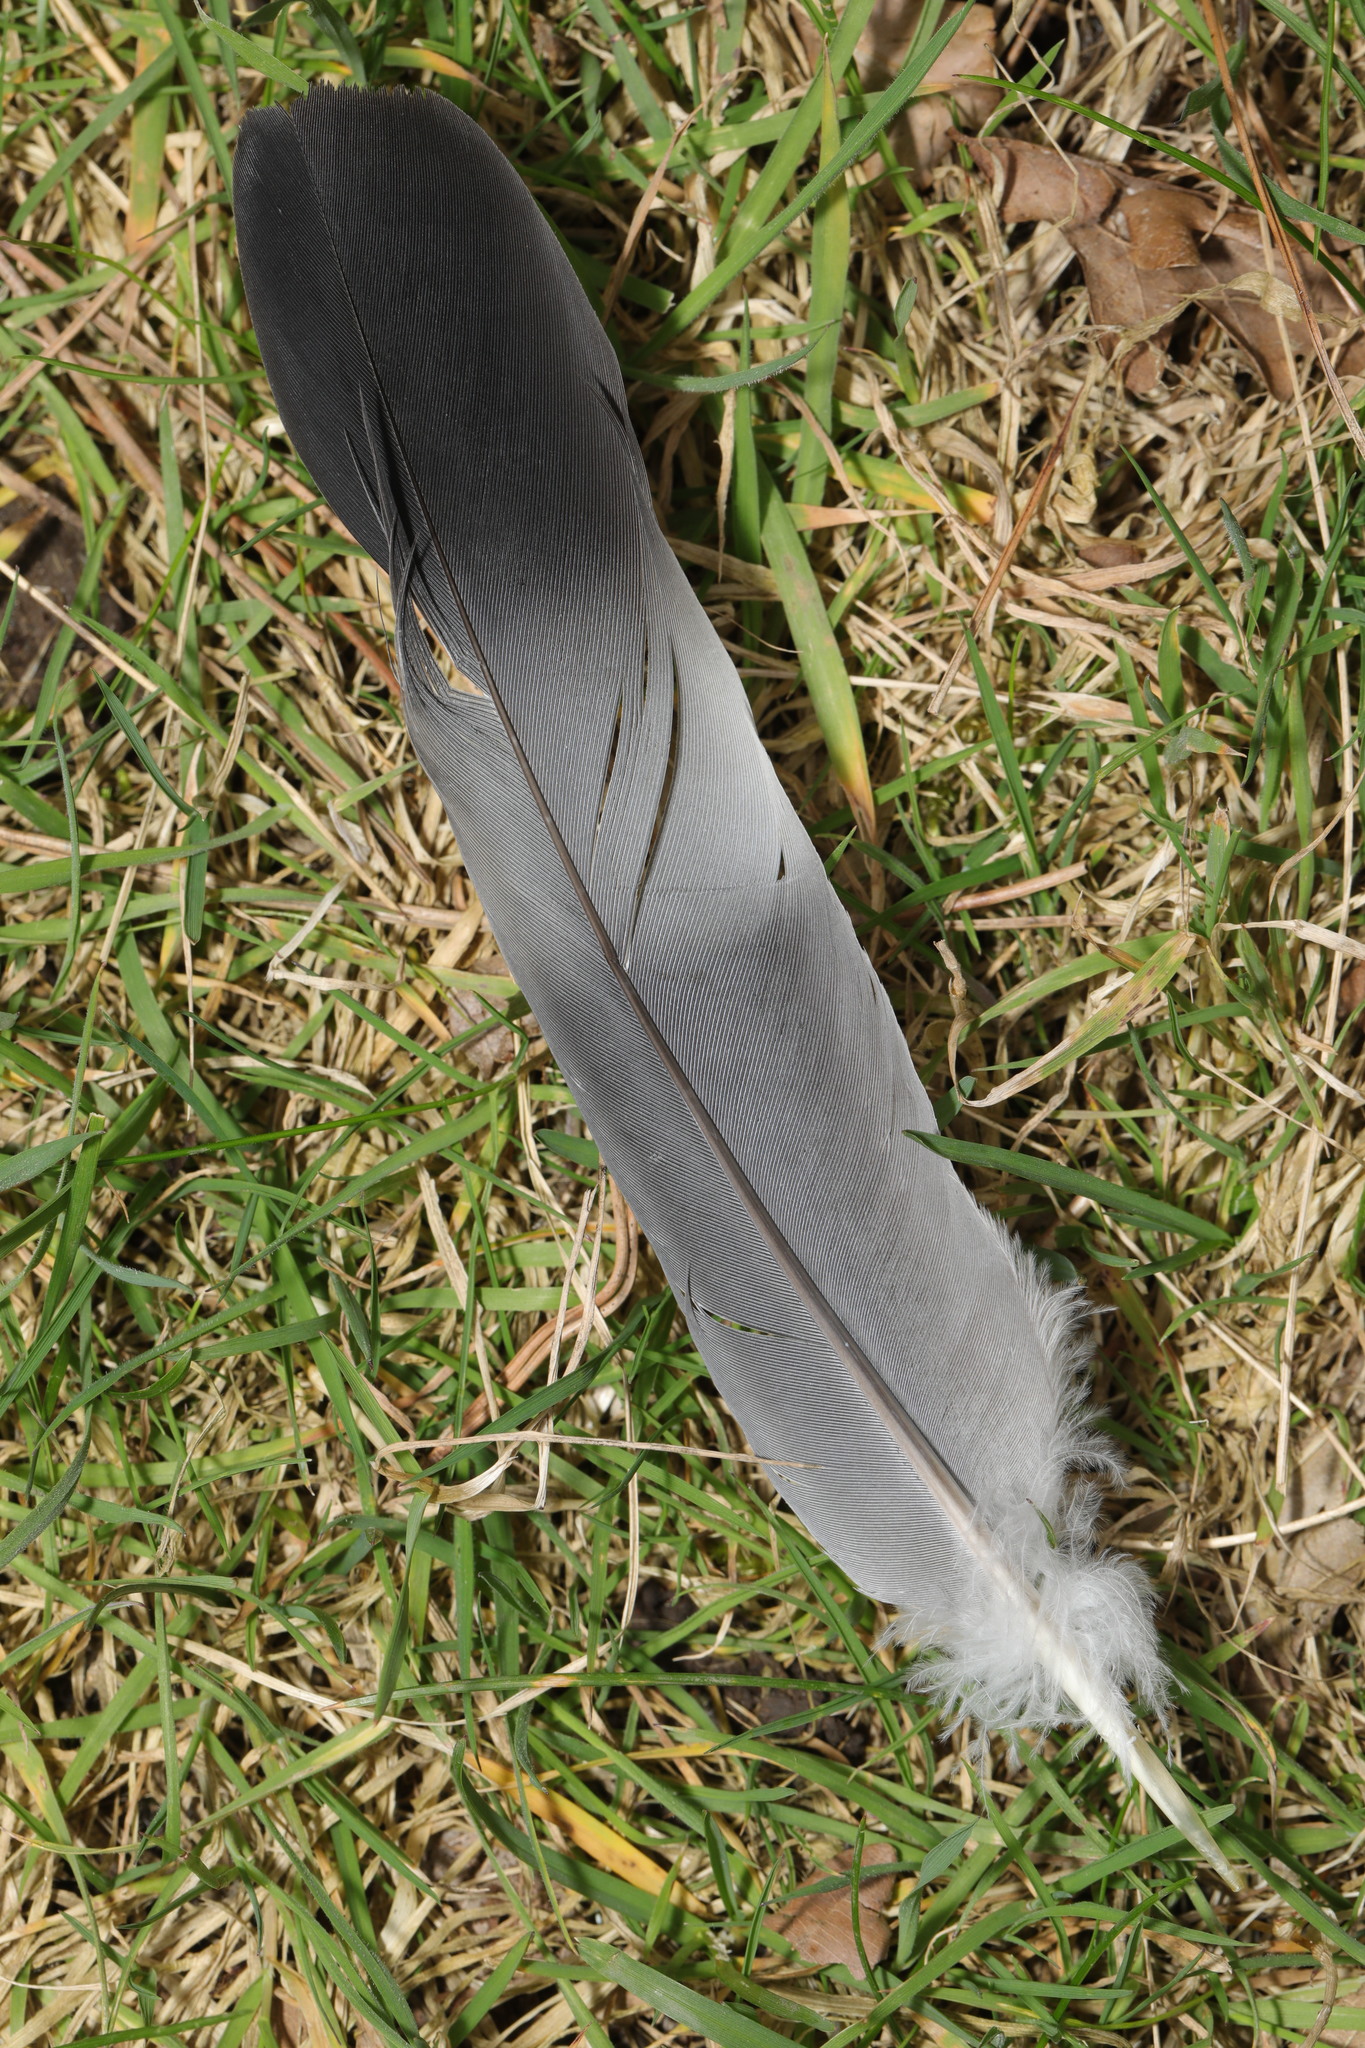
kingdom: Animalia
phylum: Chordata
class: Aves
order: Columbiformes
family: Columbidae
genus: Columba
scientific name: Columba palumbus
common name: Common wood pigeon
